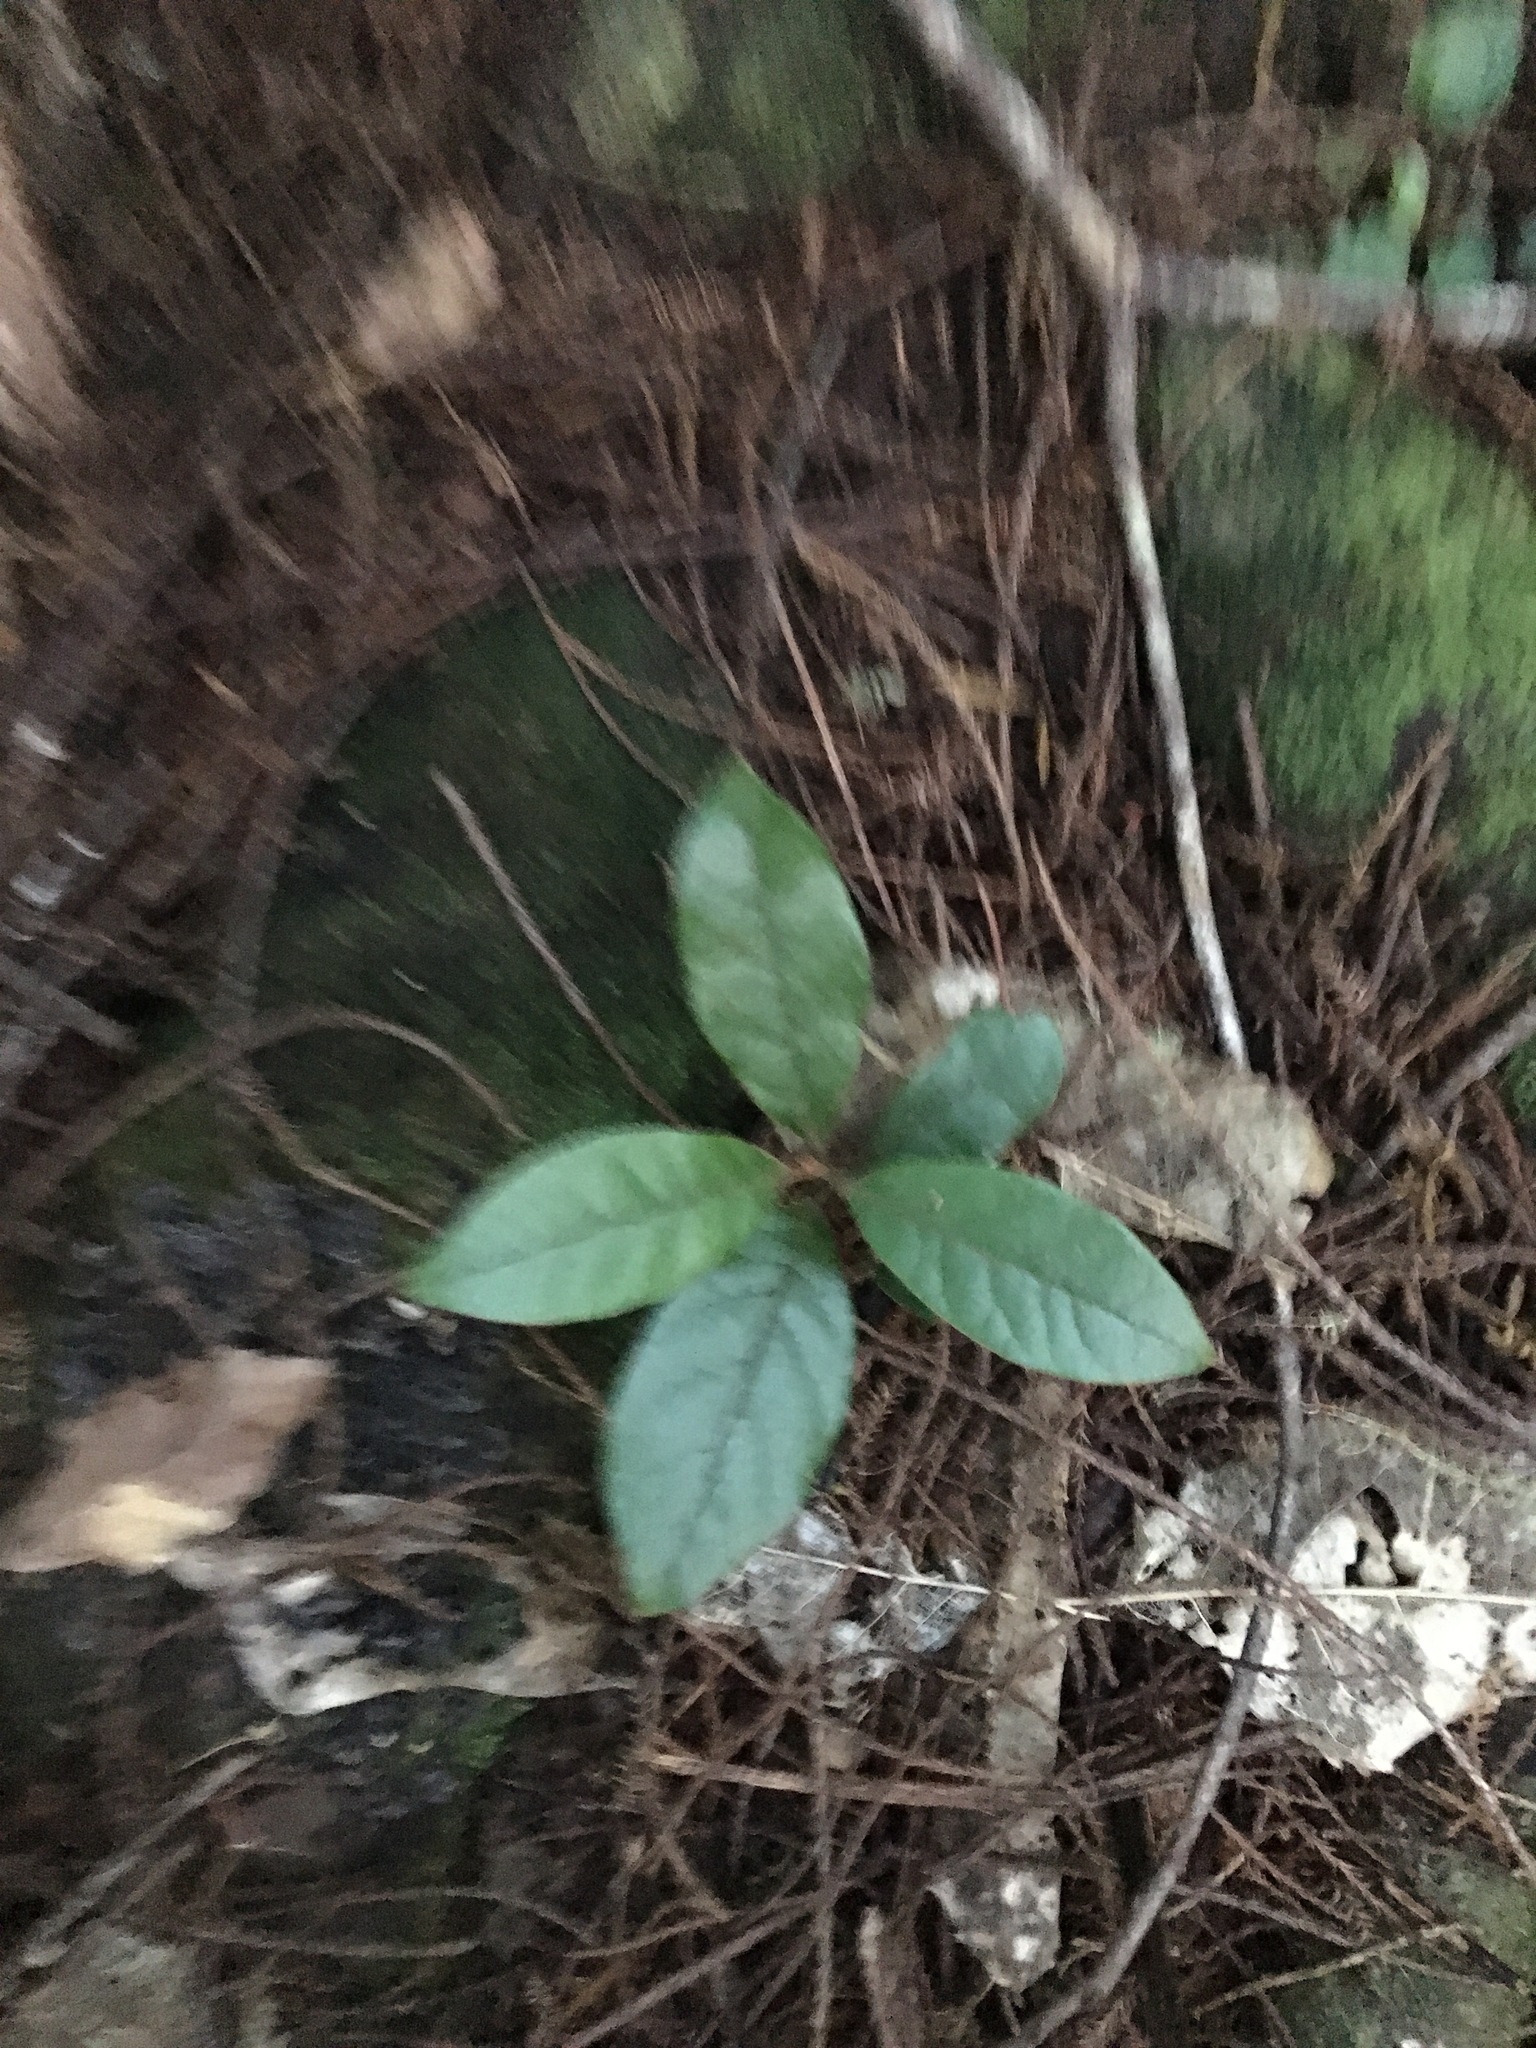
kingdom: Plantae
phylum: Tracheophyta
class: Magnoliopsida
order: Laurales
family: Lauraceae
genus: Beilschmiedia
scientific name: Beilschmiedia tarairi
